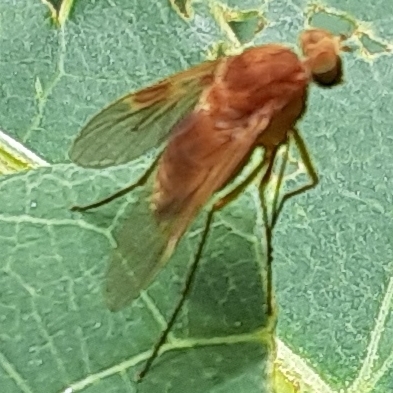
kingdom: Animalia
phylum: Arthropoda
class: Insecta
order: Diptera
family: Rhagionidae
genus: Chrysopilus
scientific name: Chrysopilus quadratus
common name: Quadrate snipe fly
